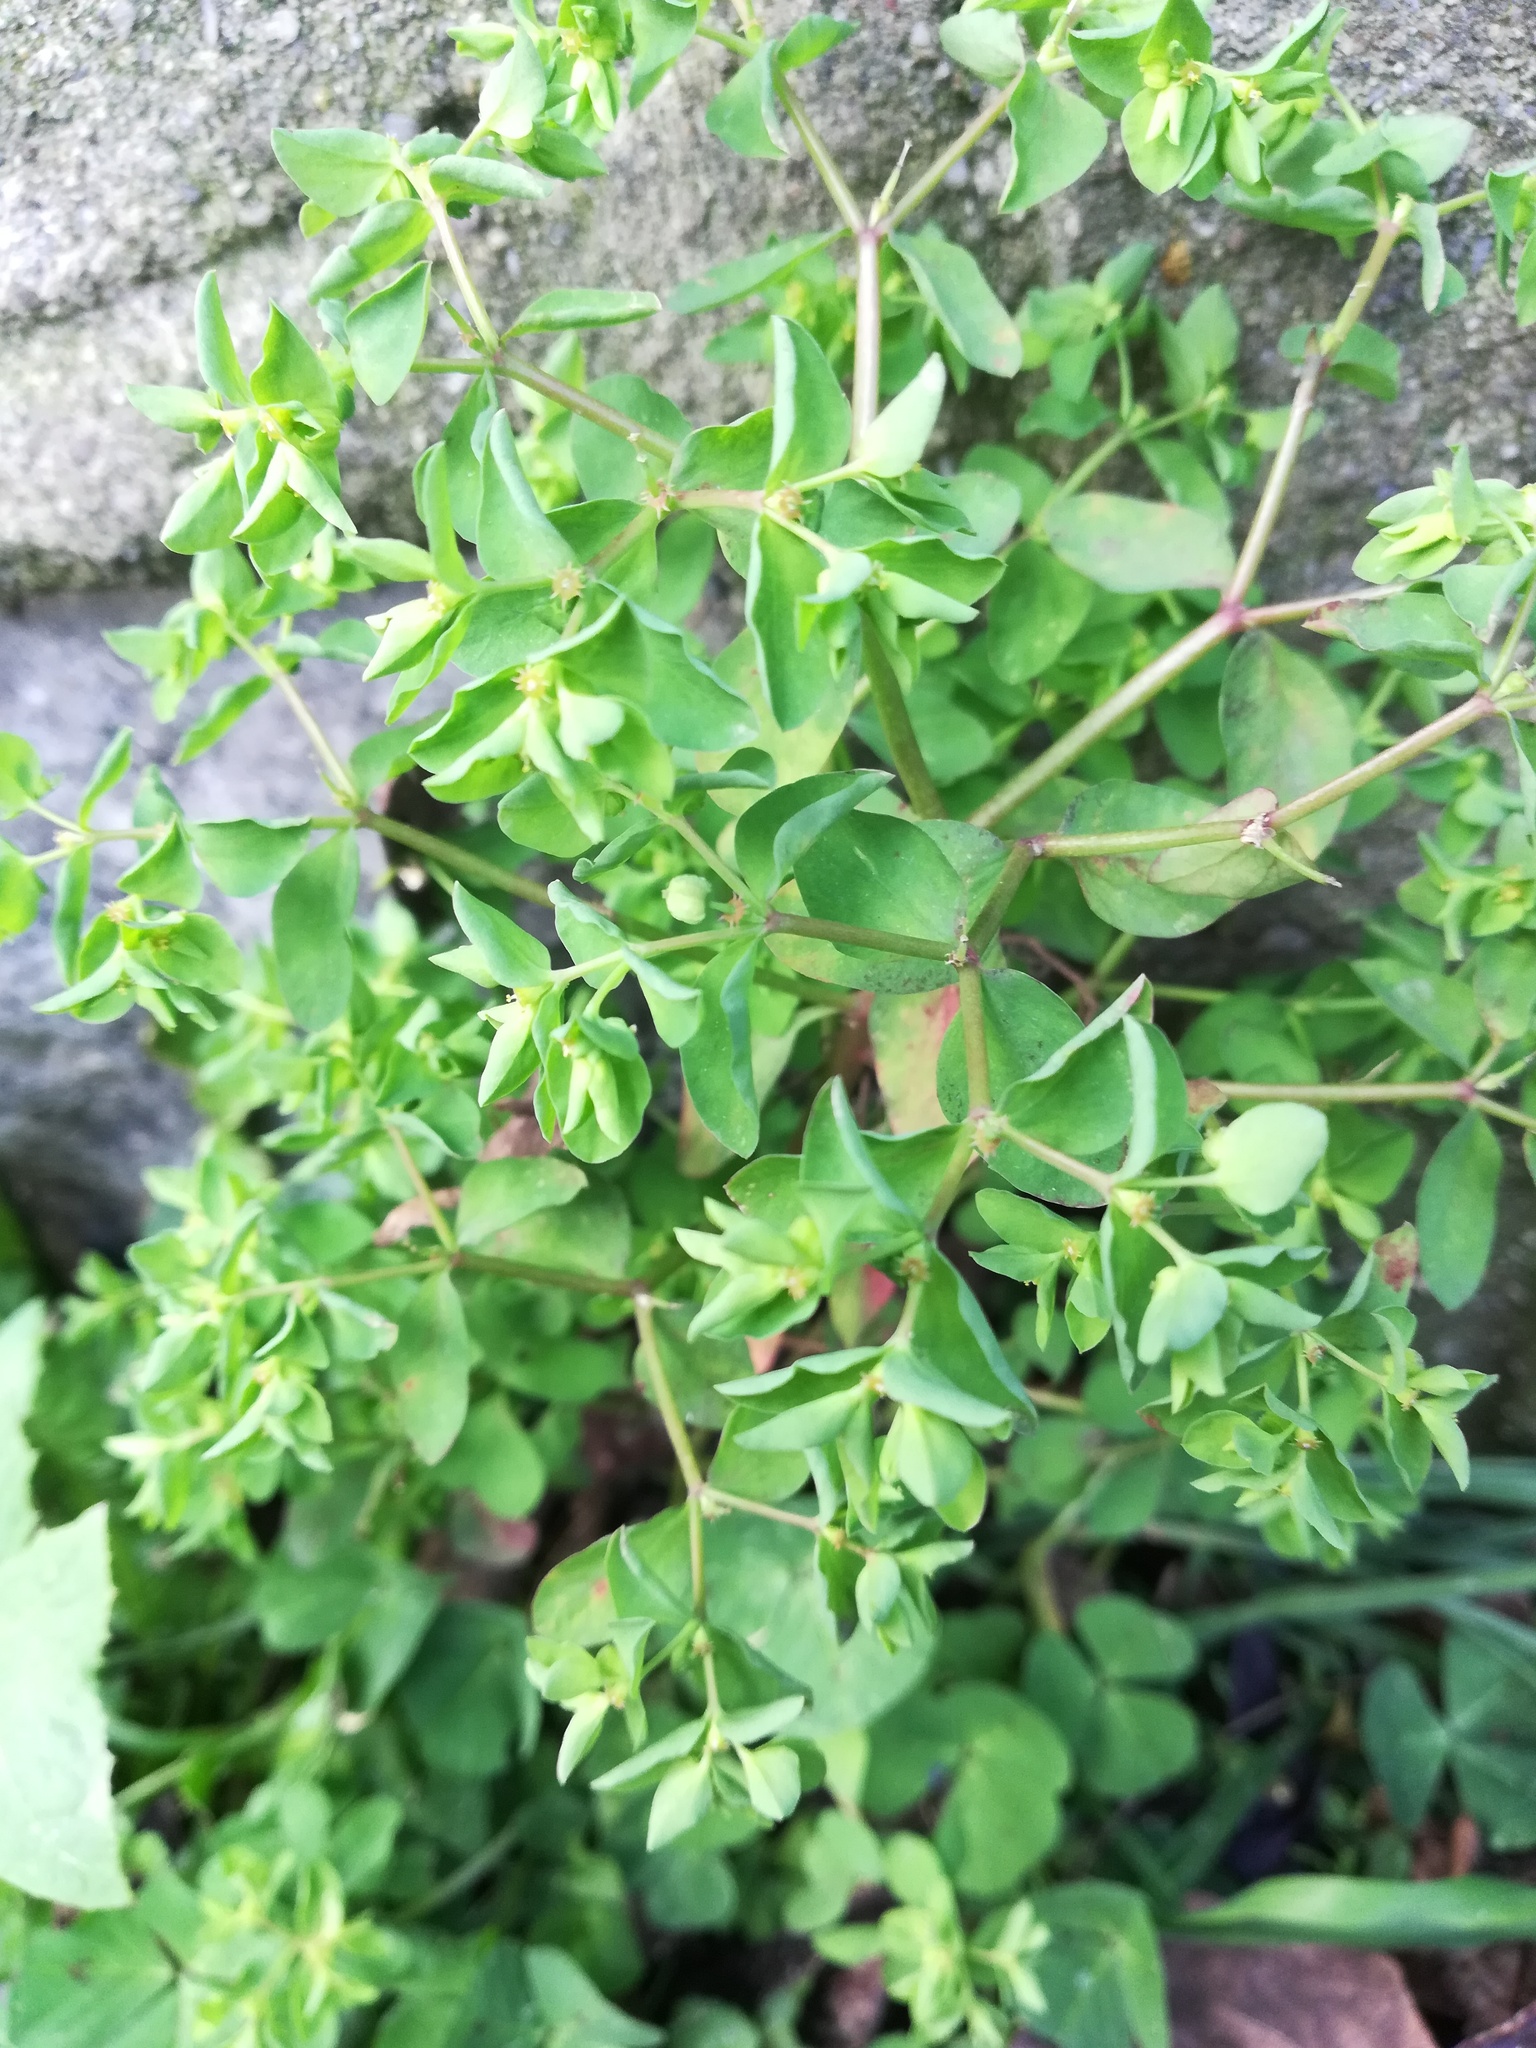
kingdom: Plantae
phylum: Tracheophyta
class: Magnoliopsida
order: Malpighiales
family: Euphorbiaceae
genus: Euphorbia
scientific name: Euphorbia peplus
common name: Petty spurge
